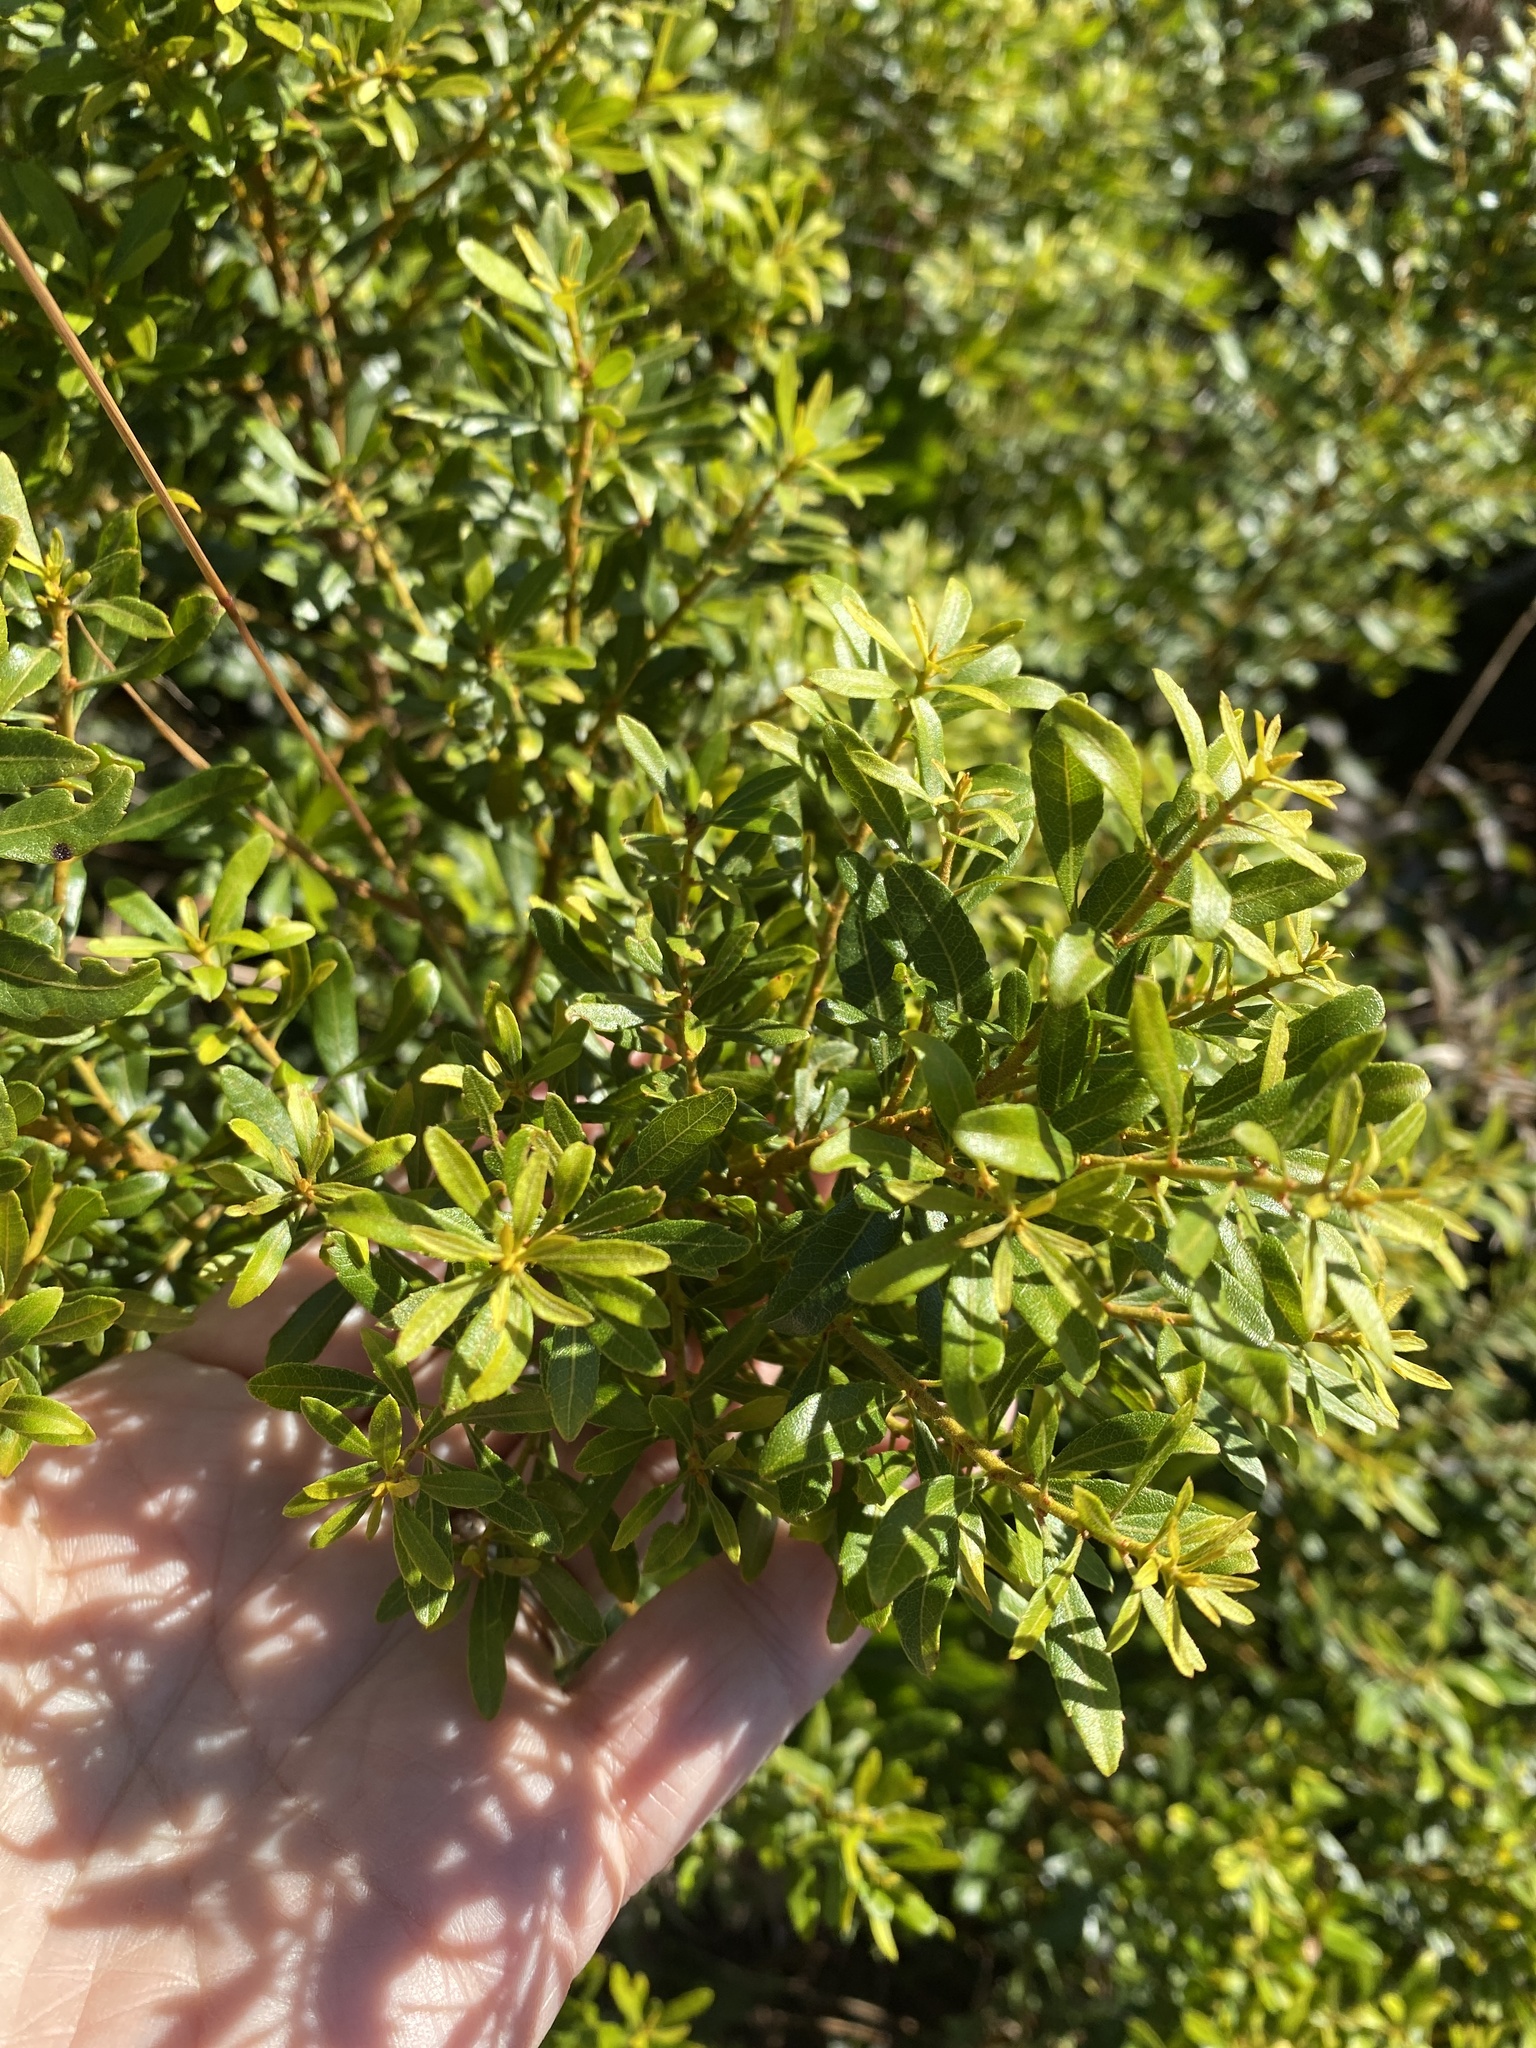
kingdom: Plantae
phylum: Tracheophyta
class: Magnoliopsida
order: Fagales
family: Myricaceae
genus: Morella
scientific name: Morella cerifera
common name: Wax myrtle
